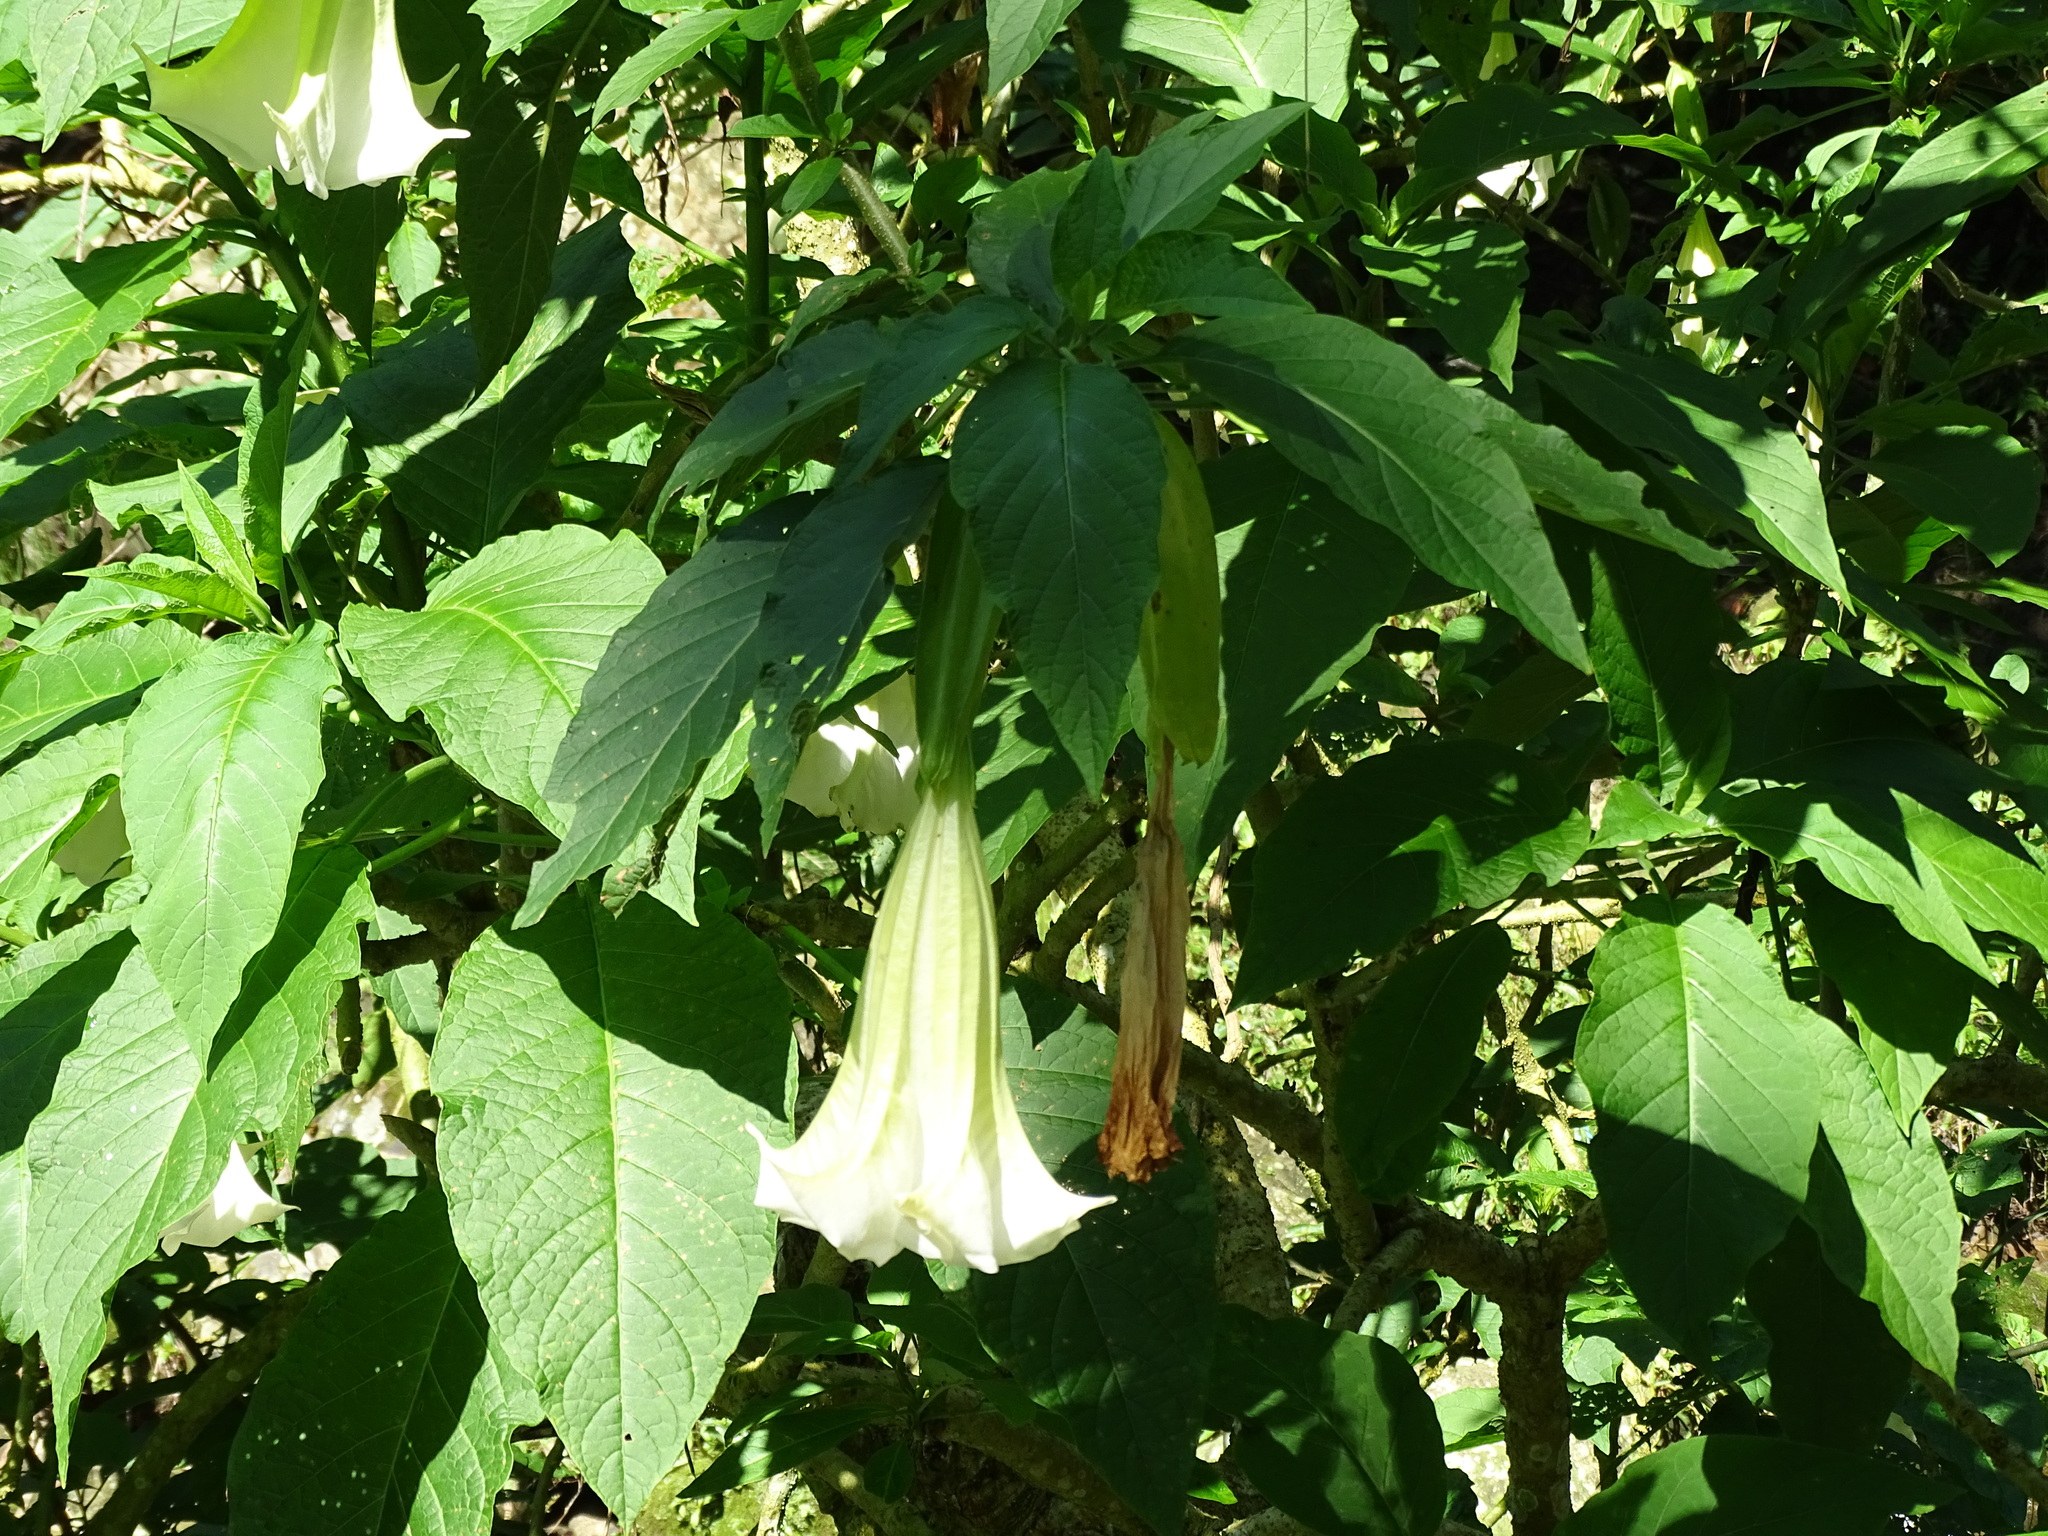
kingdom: Plantae
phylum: Tracheophyta
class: Magnoliopsida
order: Solanales
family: Solanaceae
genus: Brugmansia
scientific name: Brugmansia suaveolens
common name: Angel's tears
